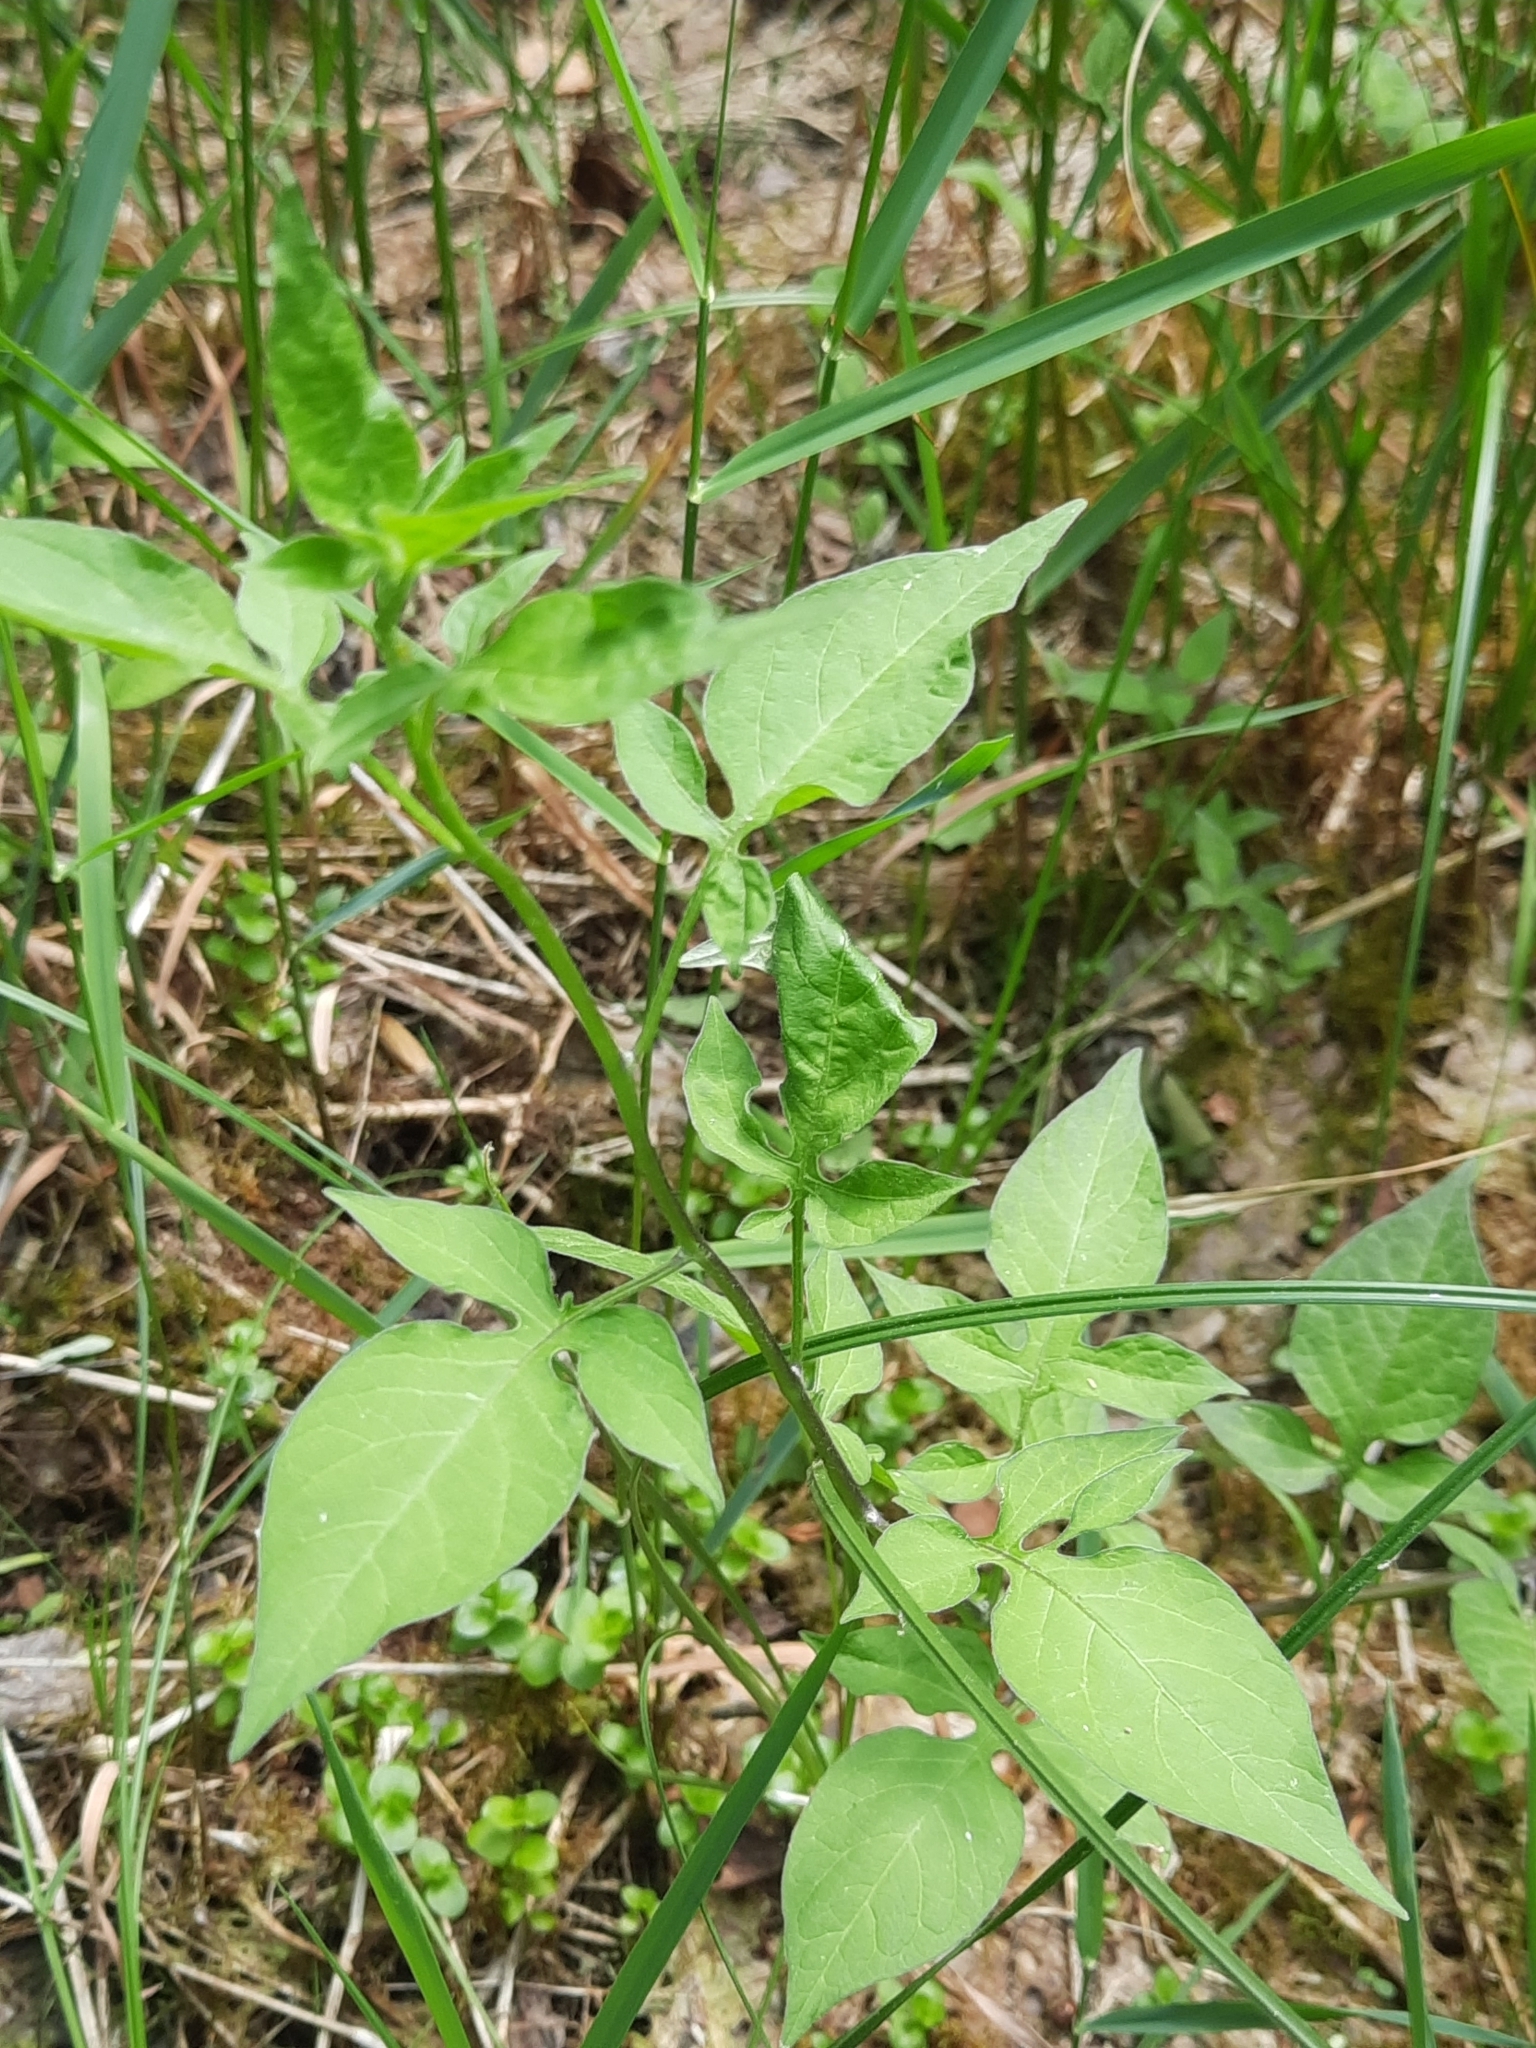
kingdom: Plantae
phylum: Tracheophyta
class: Magnoliopsida
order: Solanales
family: Solanaceae
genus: Solanum
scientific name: Solanum dulcamara
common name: Climbing nightshade
